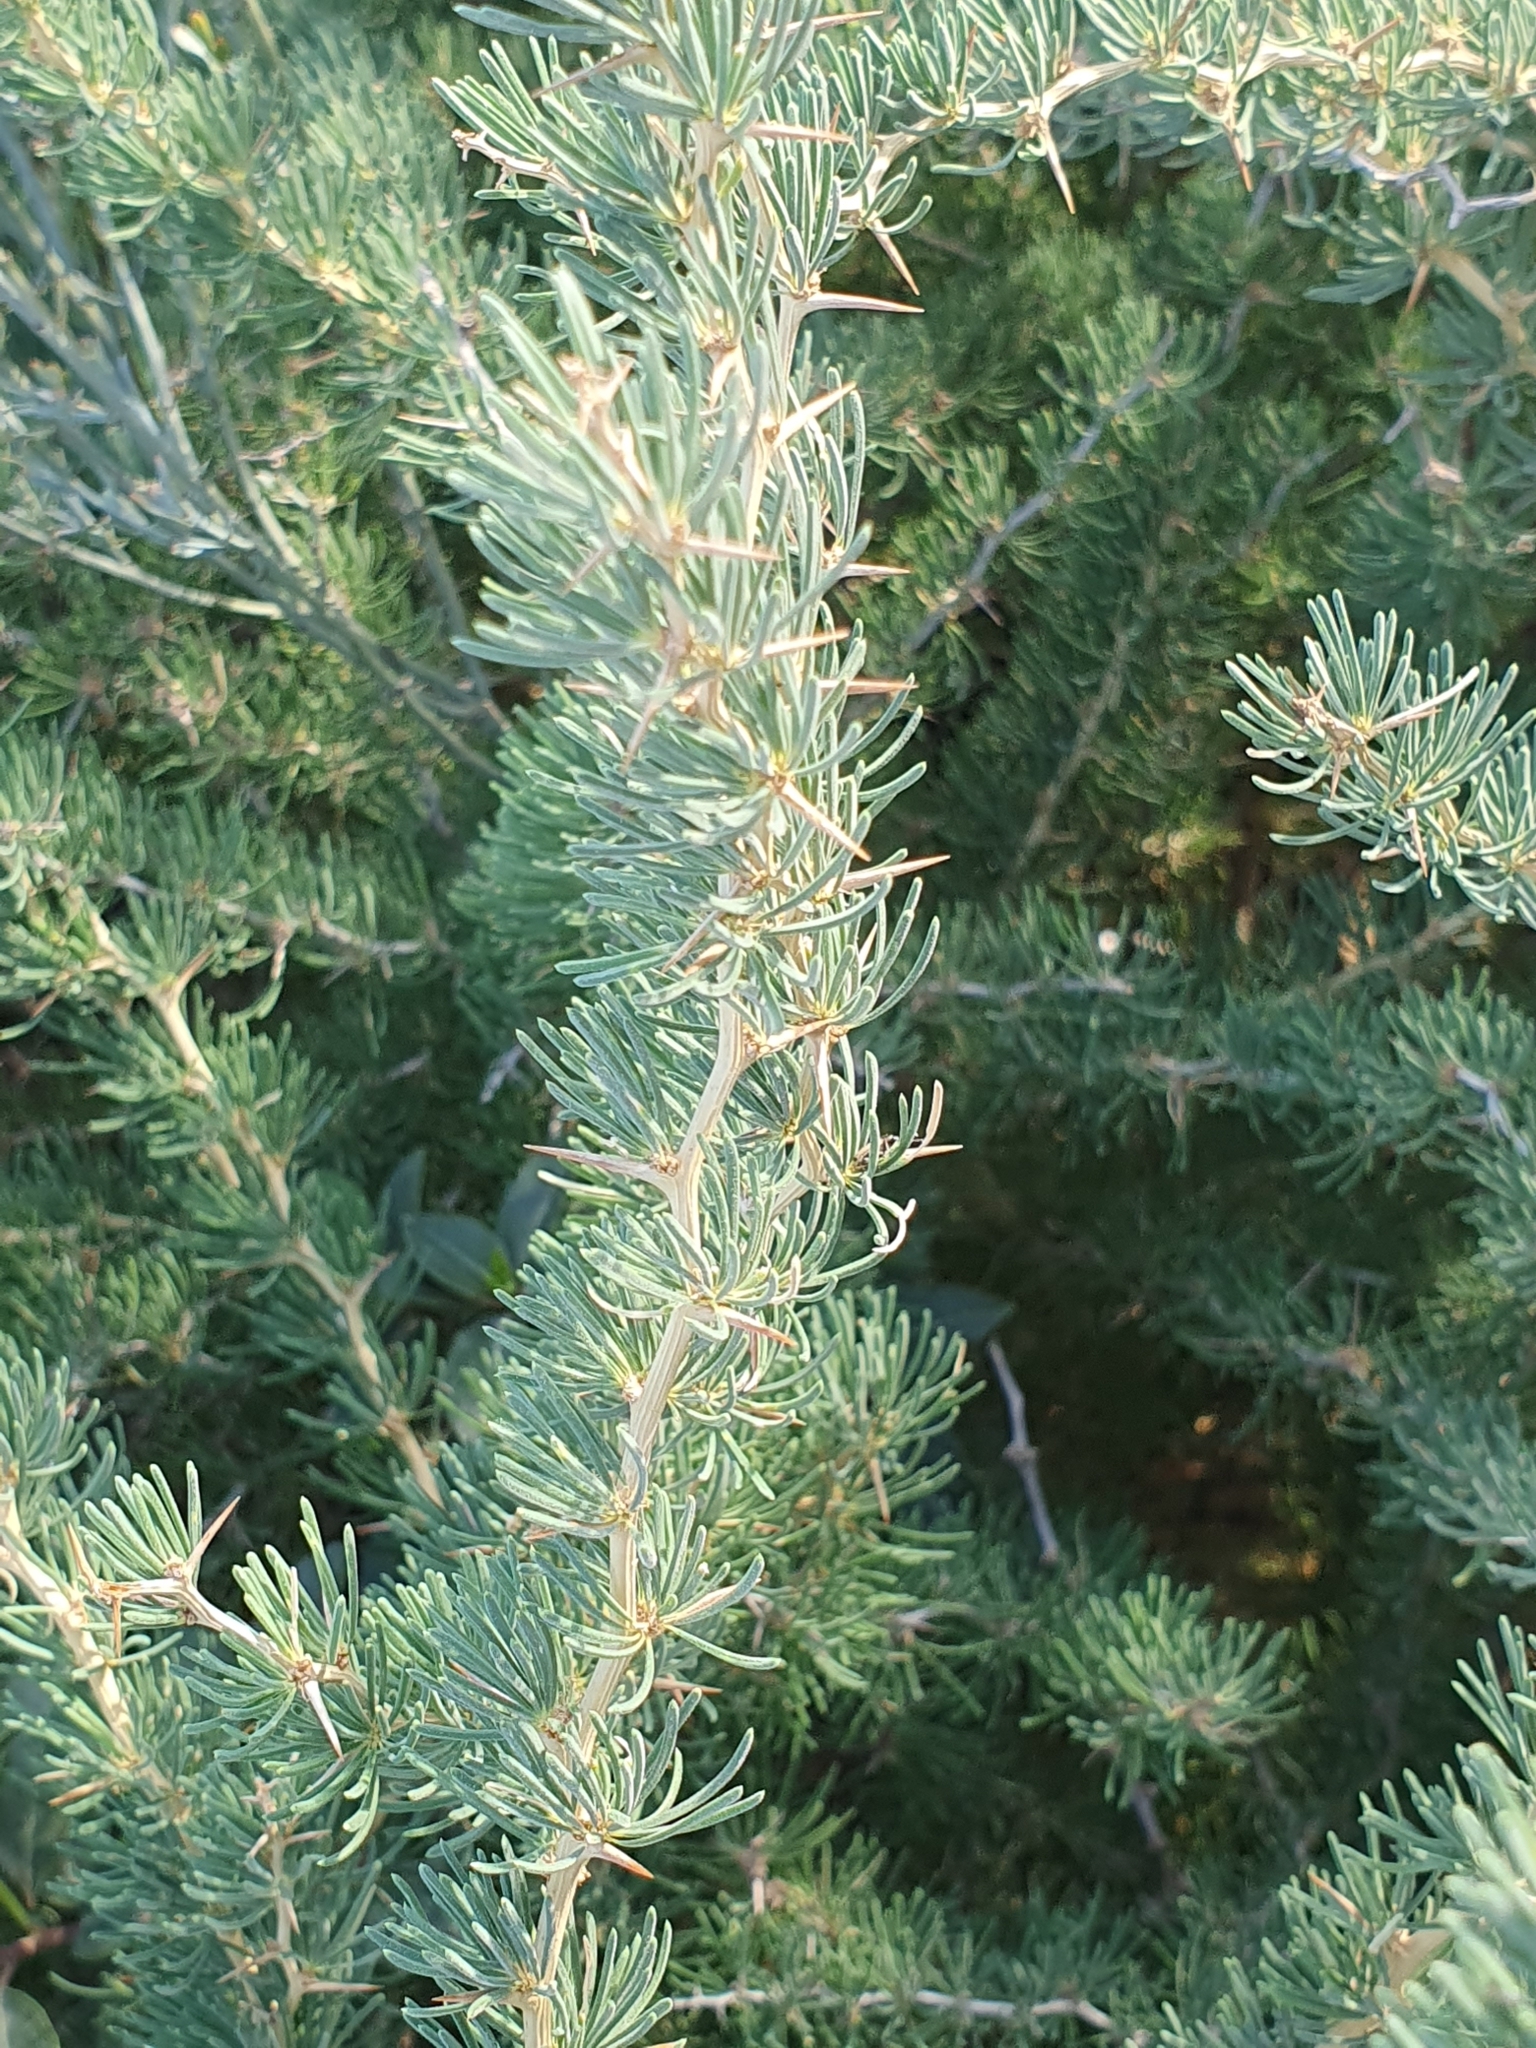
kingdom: Plantae
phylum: Tracheophyta
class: Liliopsida
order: Asparagales
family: Asparagaceae
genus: Asparagus
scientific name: Asparagus albus
